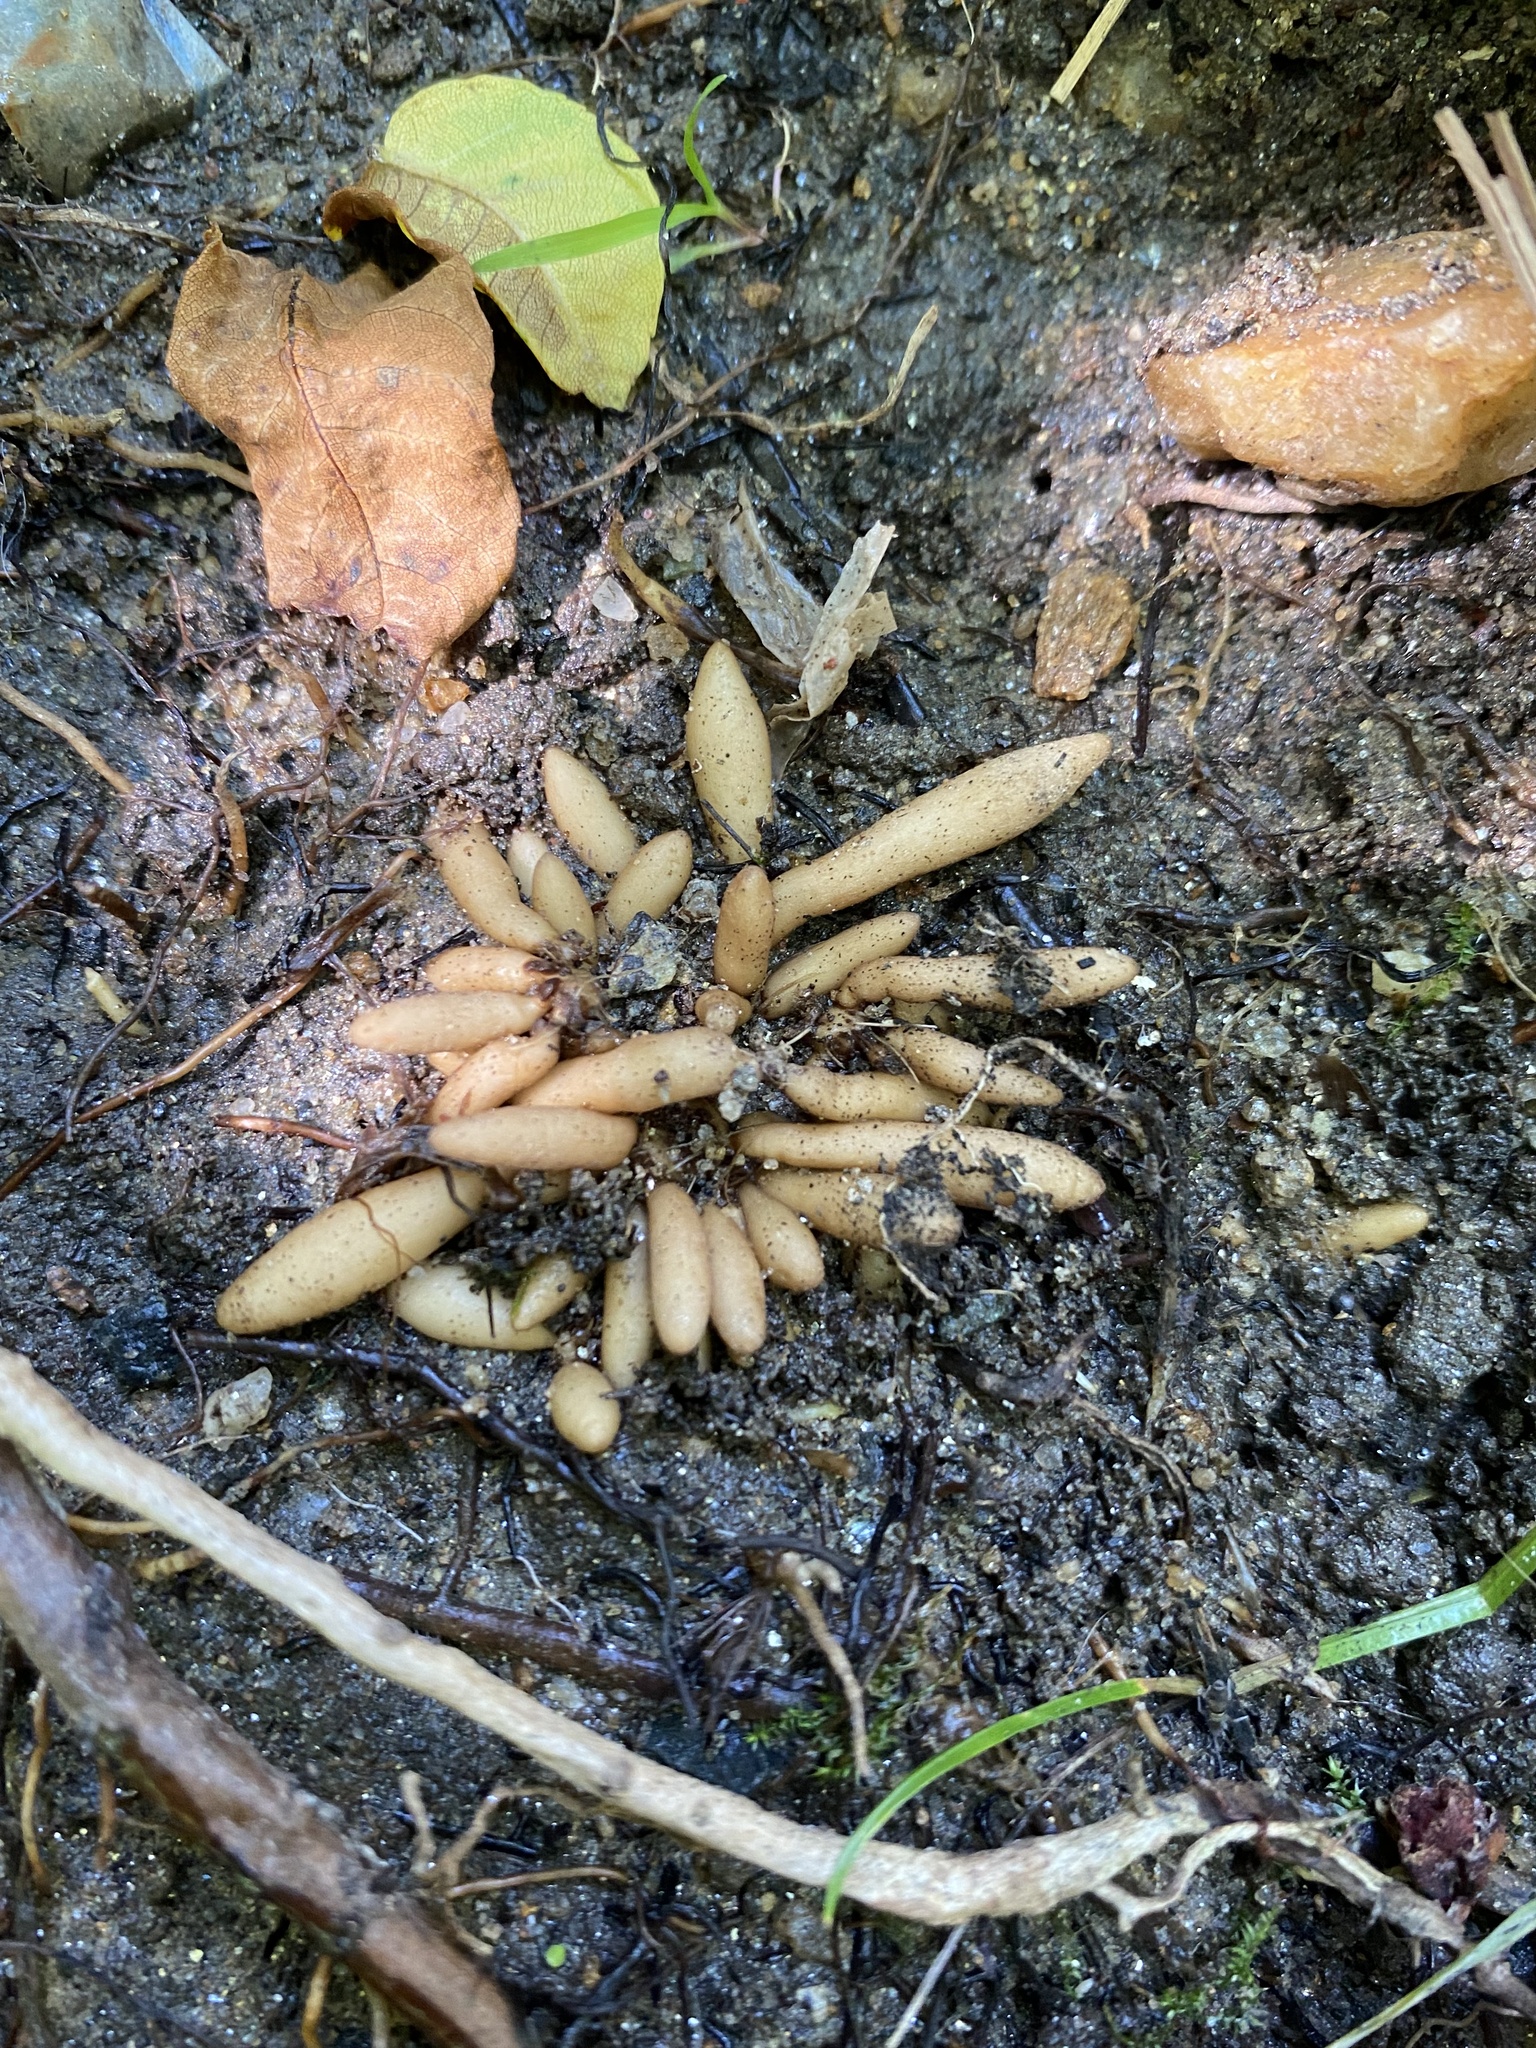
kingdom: Plantae
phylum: Tracheophyta
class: Magnoliopsida
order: Ranunculales
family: Ranunculaceae
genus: Ficaria
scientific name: Ficaria verna
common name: Lesser celandine
